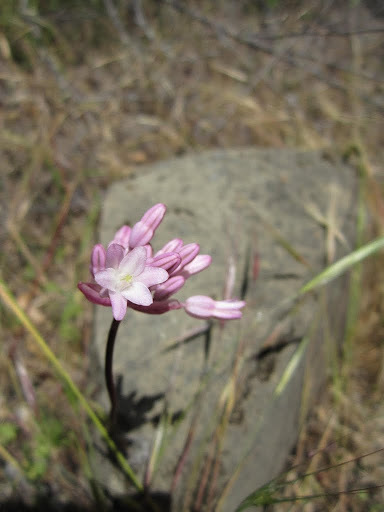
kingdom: Plantae
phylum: Tracheophyta
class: Liliopsida
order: Asparagales
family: Asparagaceae
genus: Dichelostemma
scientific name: Dichelostemma volubile
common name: Trining brodiaea
